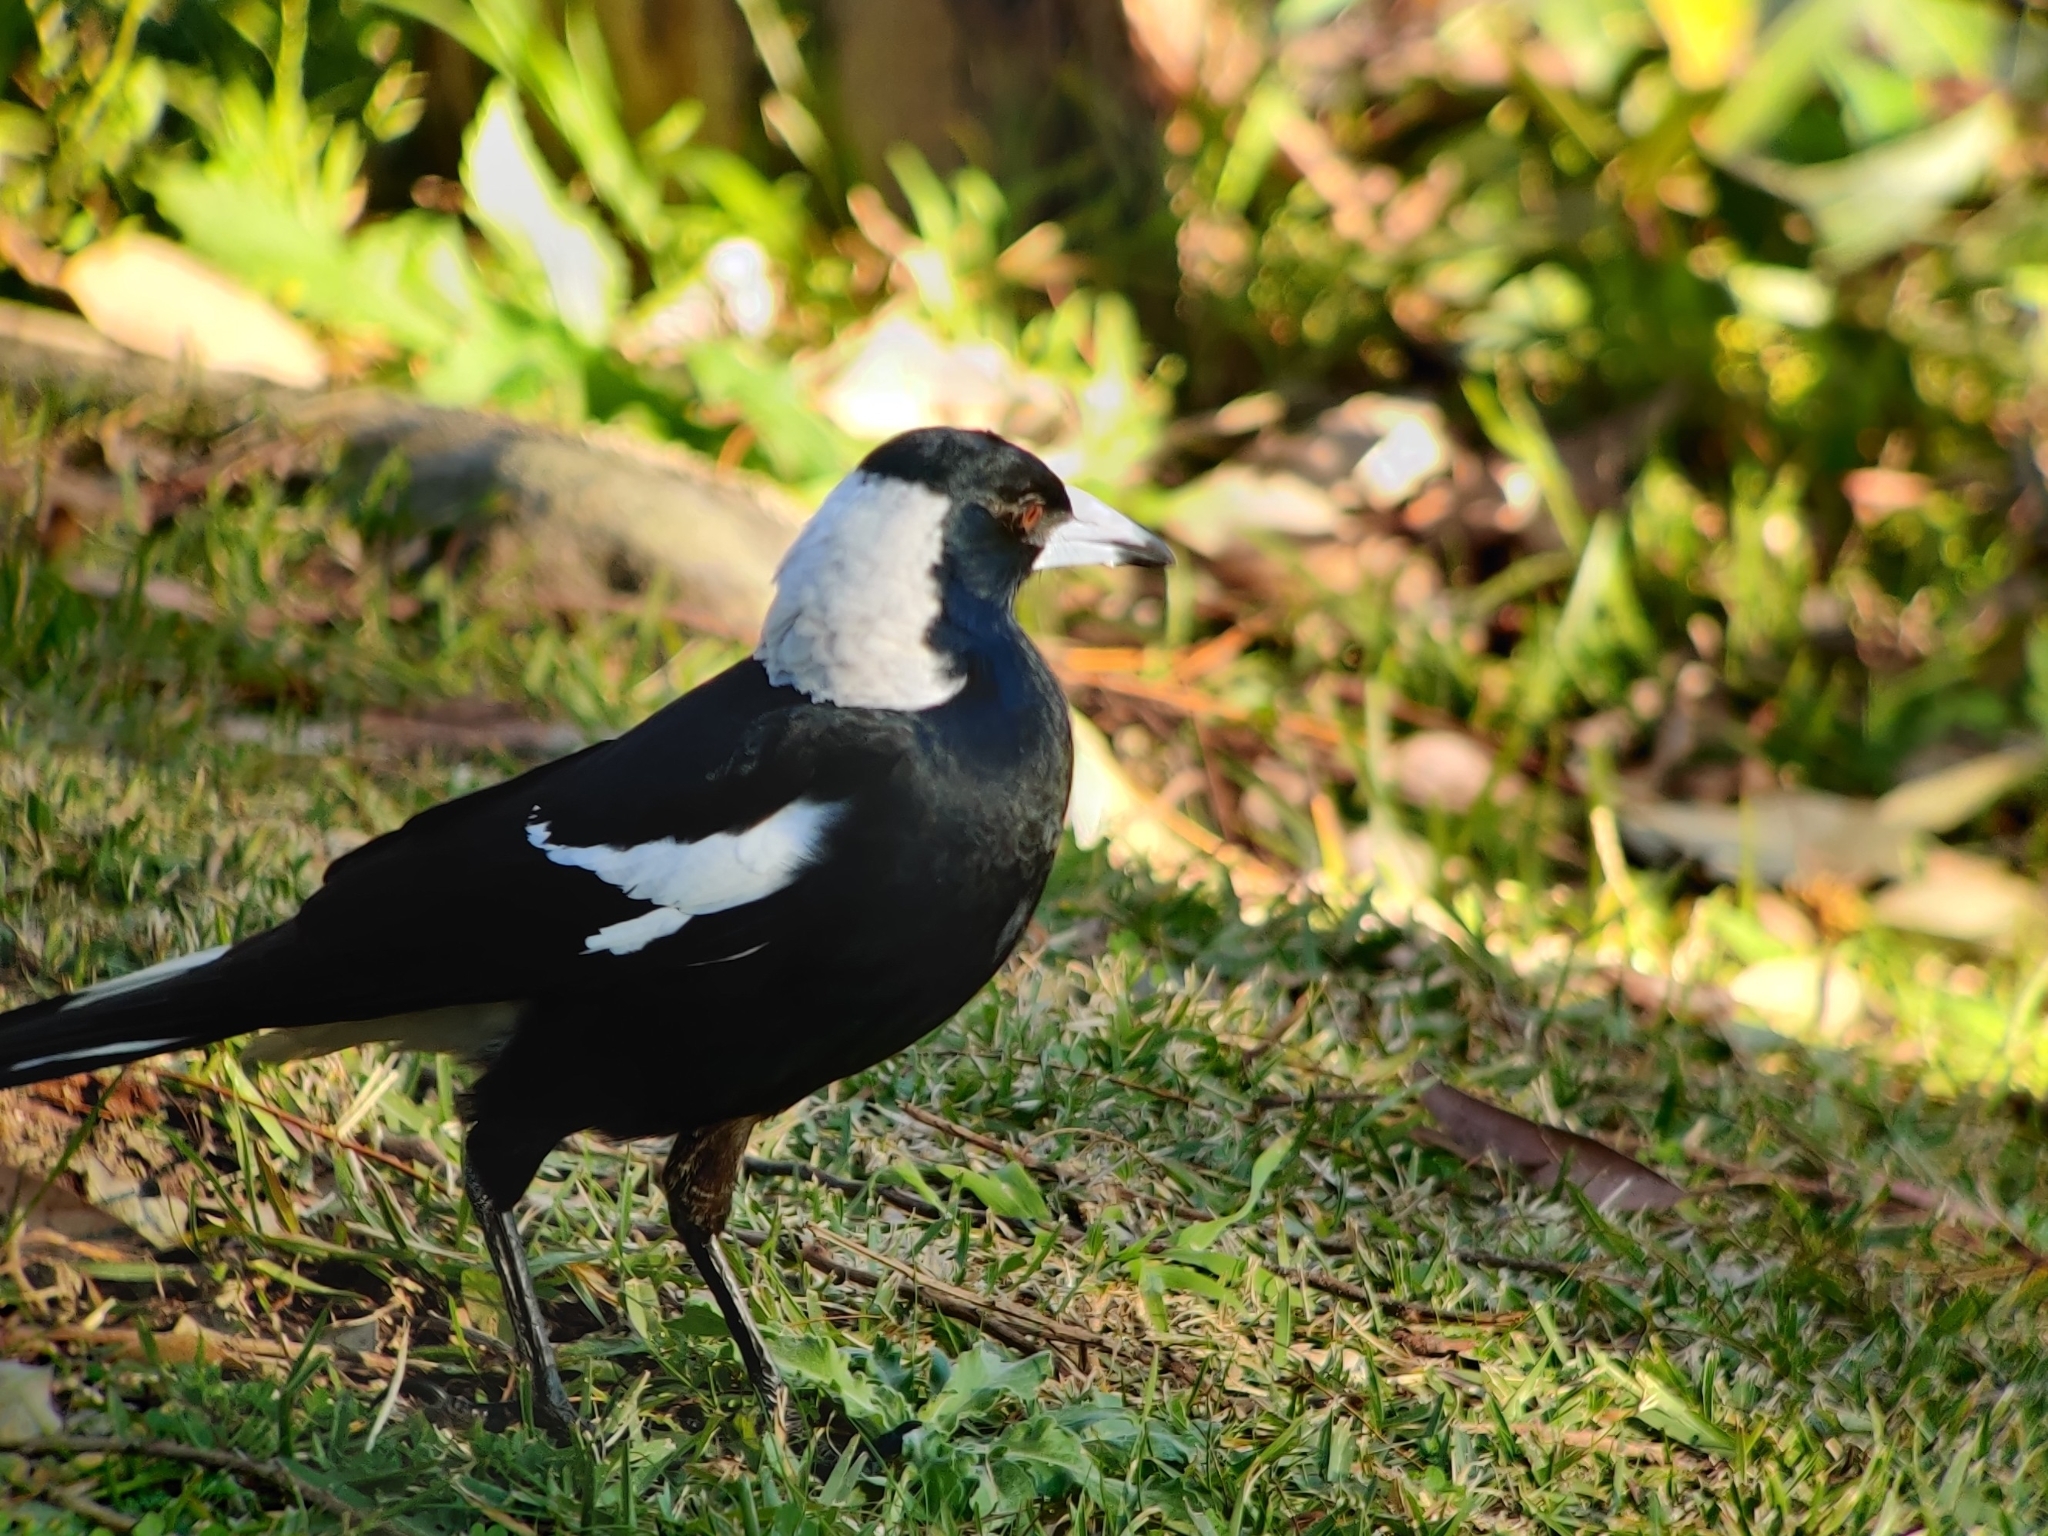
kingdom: Animalia
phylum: Chordata
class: Aves
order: Passeriformes
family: Cracticidae
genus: Gymnorhina
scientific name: Gymnorhina tibicen
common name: Australian magpie
